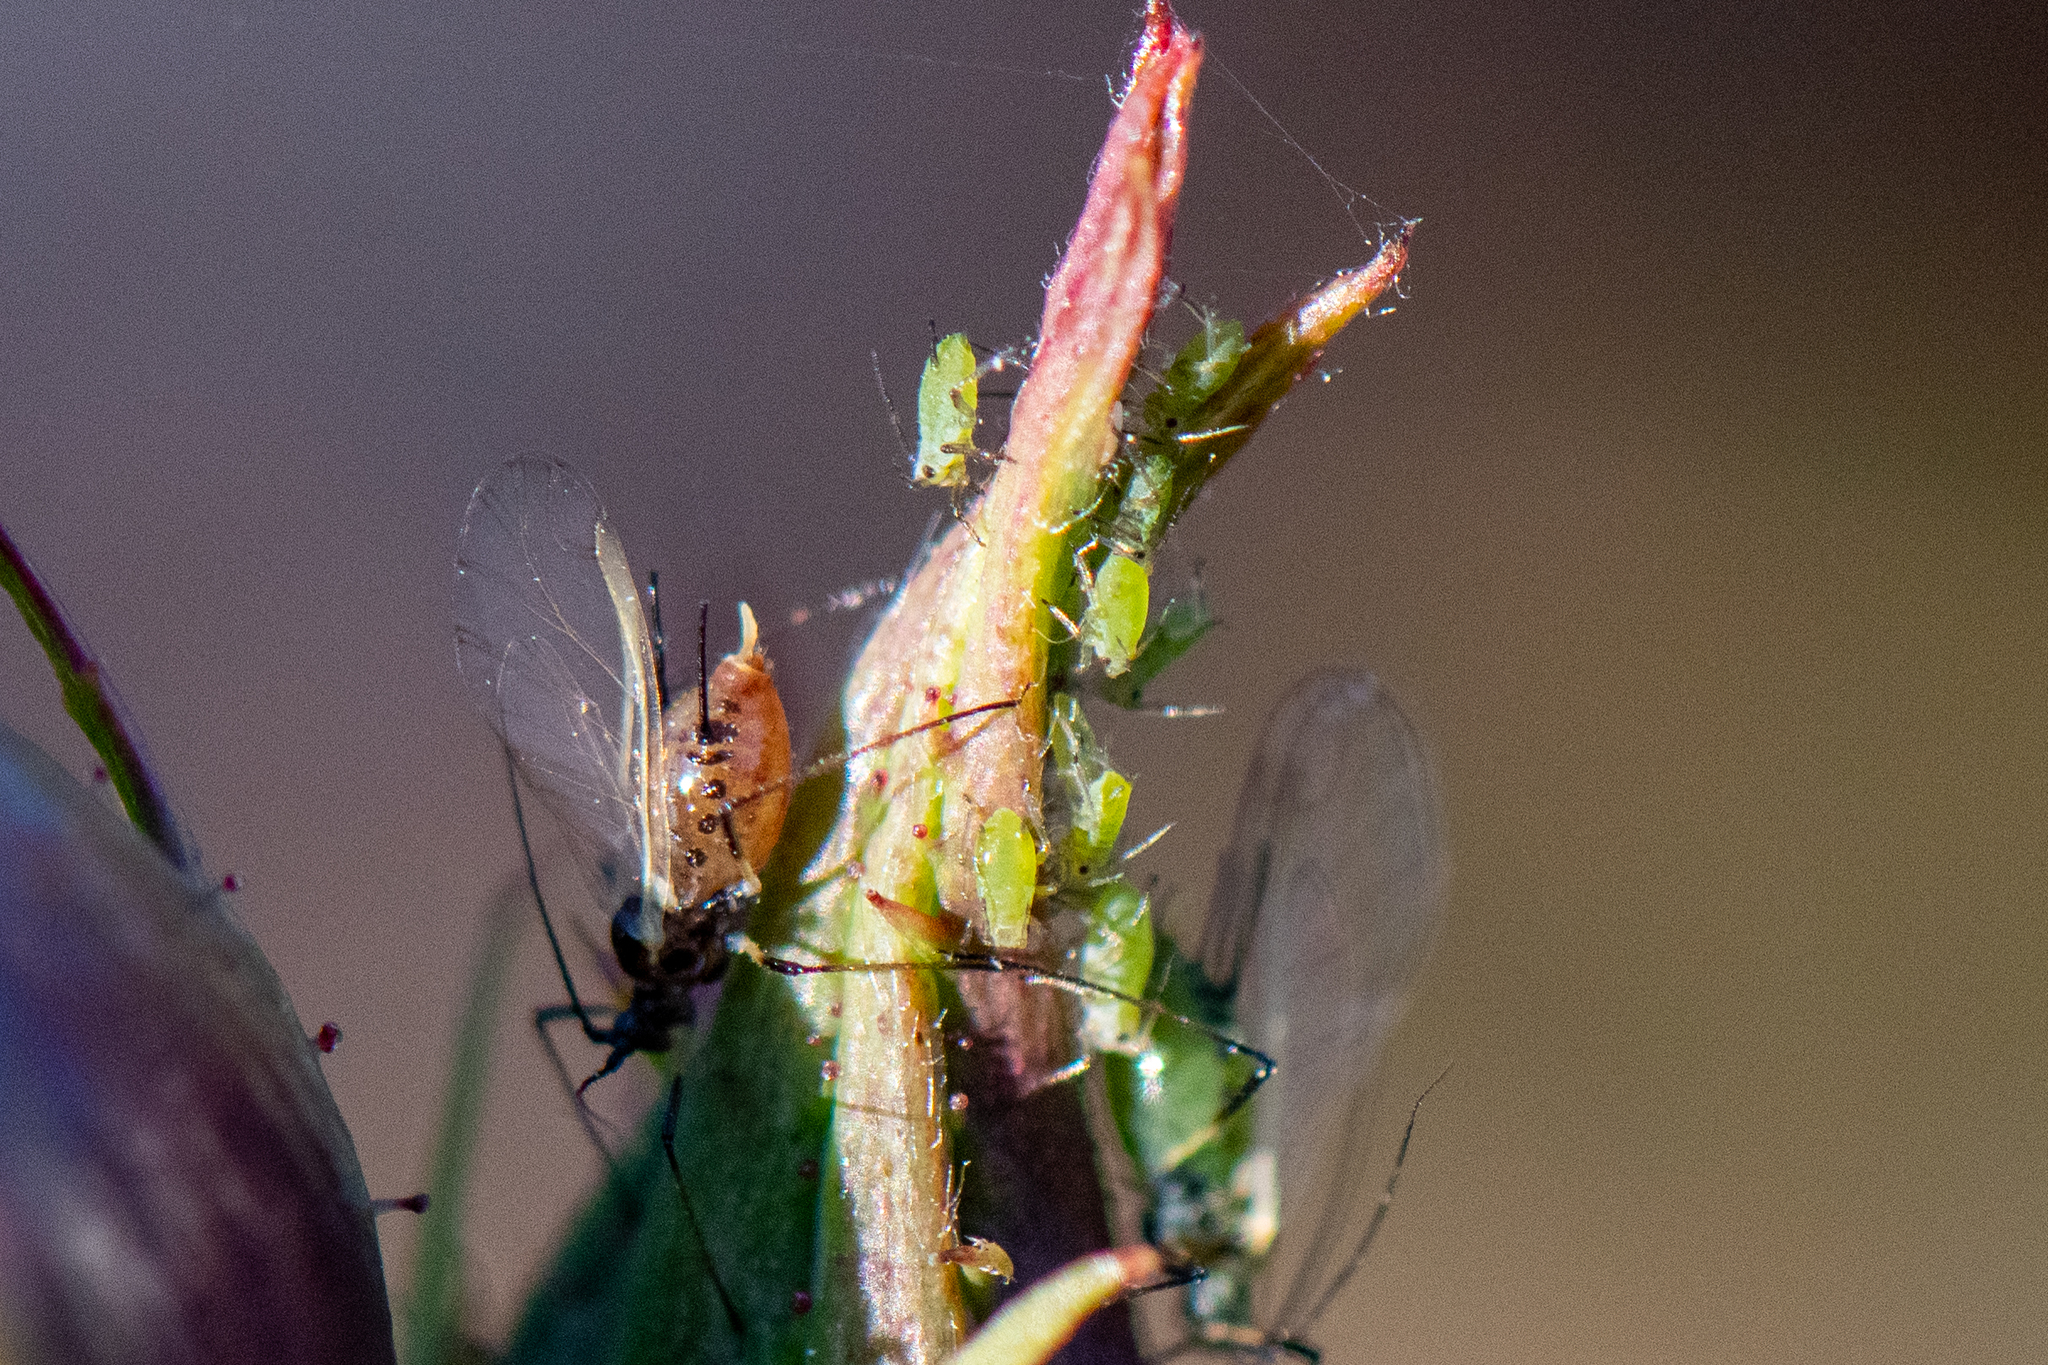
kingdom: Animalia
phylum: Arthropoda
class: Insecta
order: Hemiptera
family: Aphididae
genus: Macrosiphum
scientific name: Macrosiphum rosae
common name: Rose aphid
